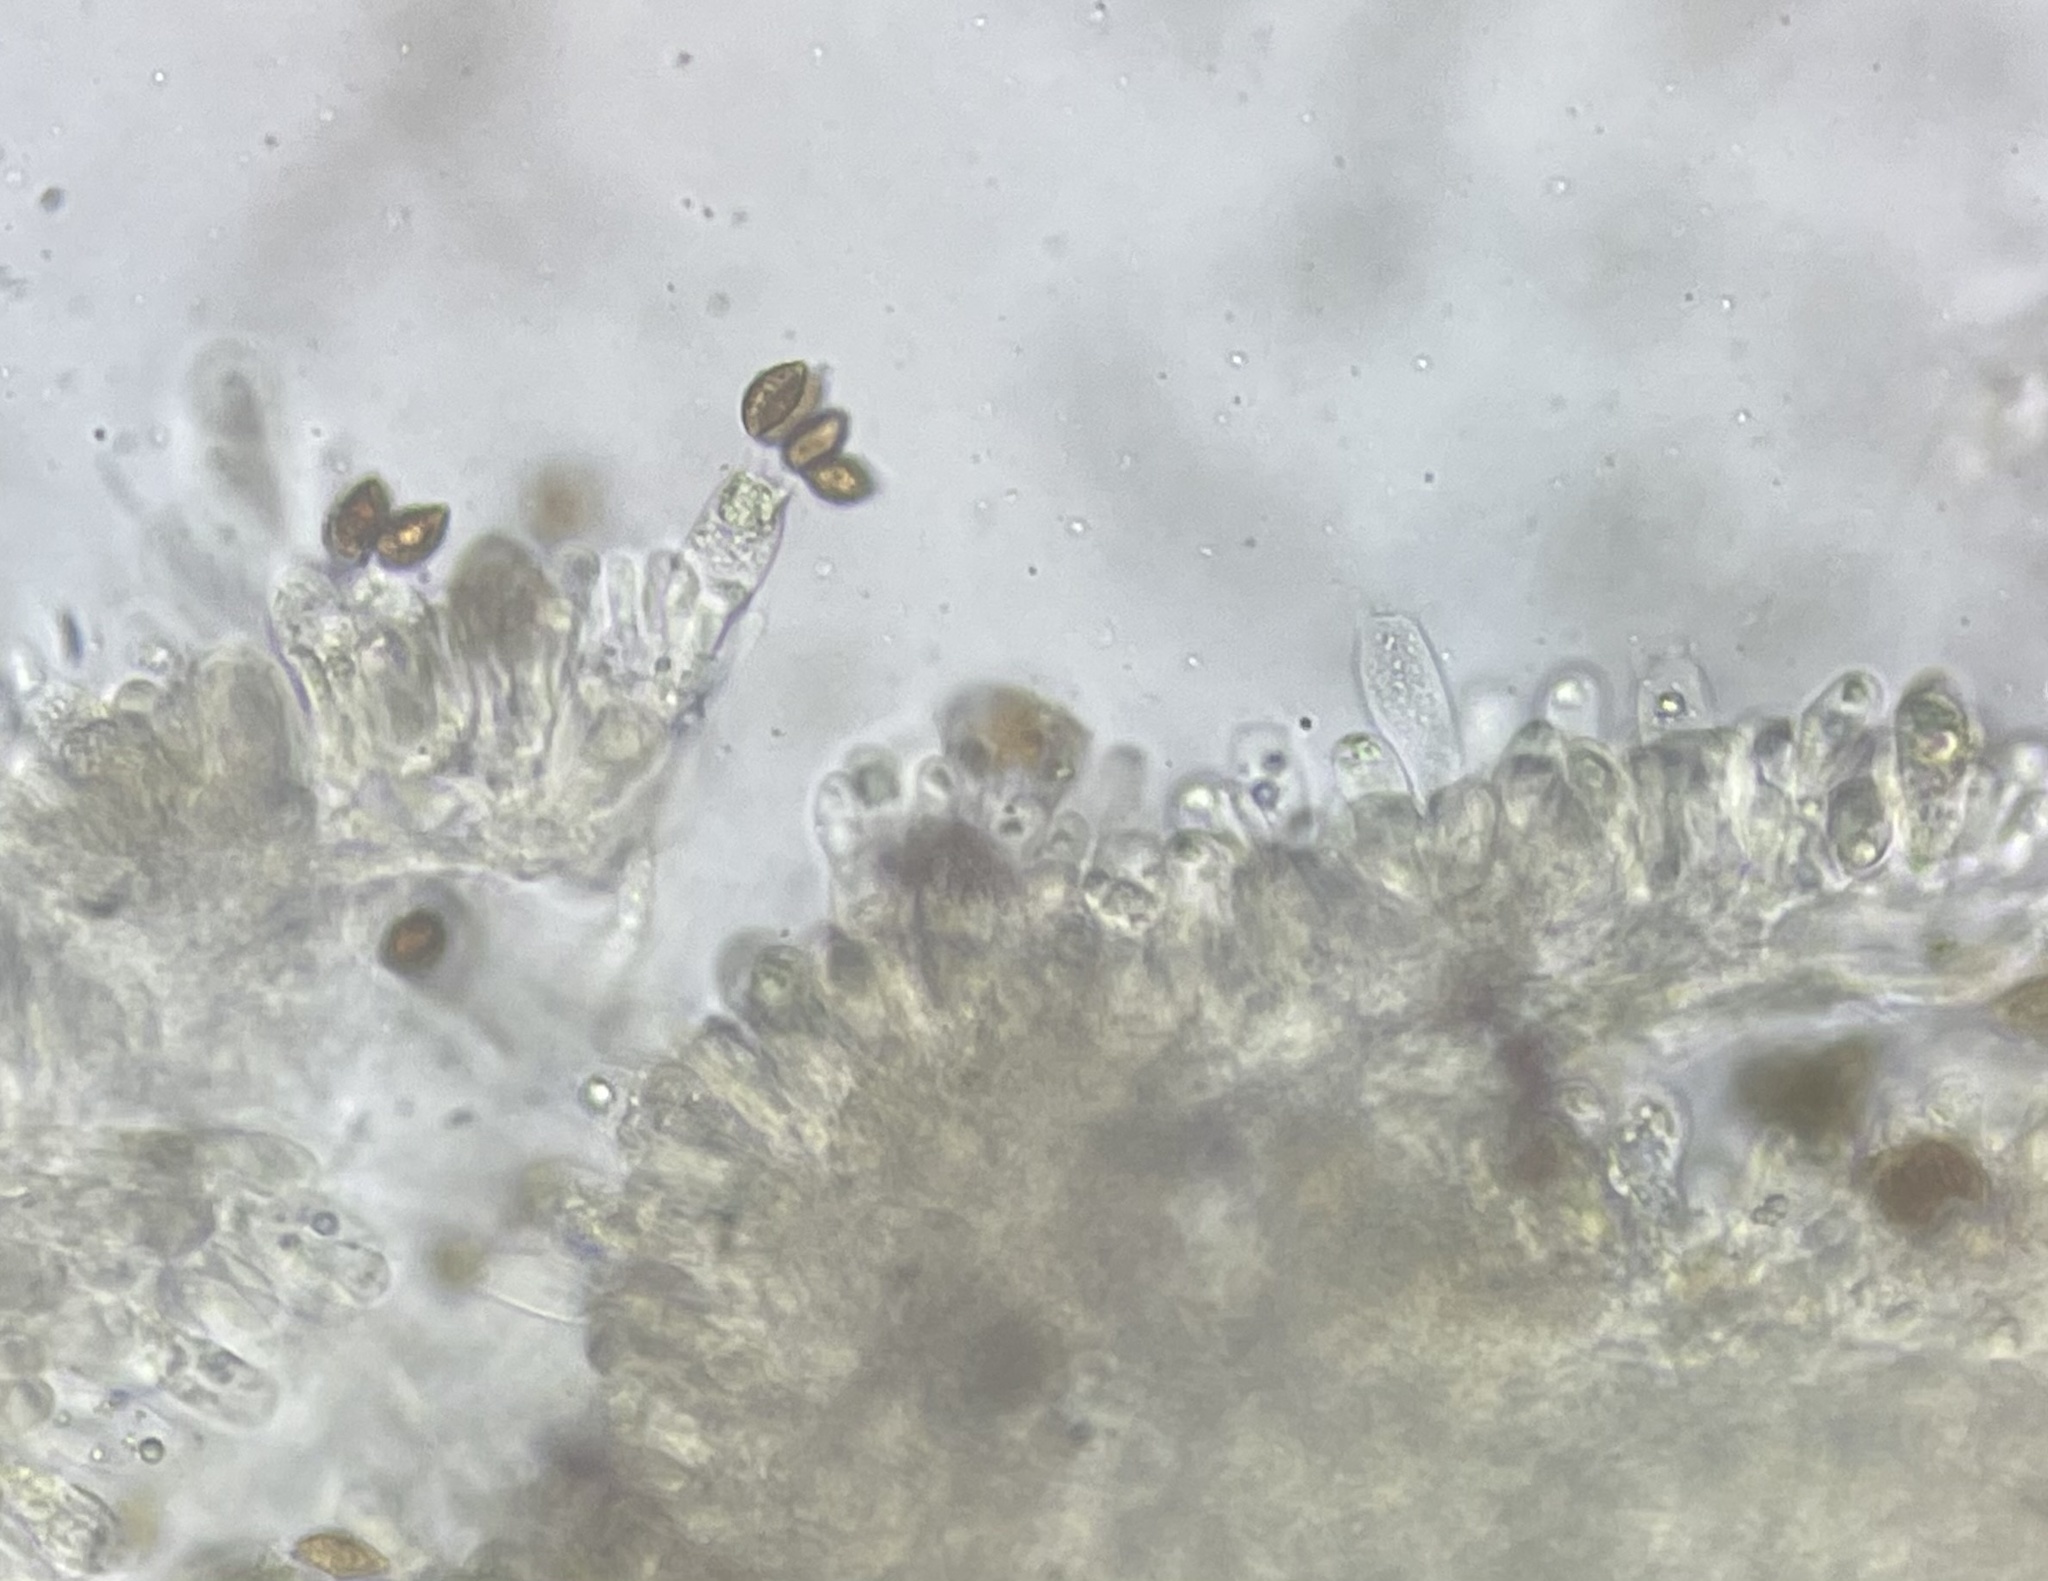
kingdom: Fungi
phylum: Basidiomycota
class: Agaricomycetes
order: Agaricales
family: Cortinariaceae
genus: Calonarius
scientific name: Calonarius olearioides
